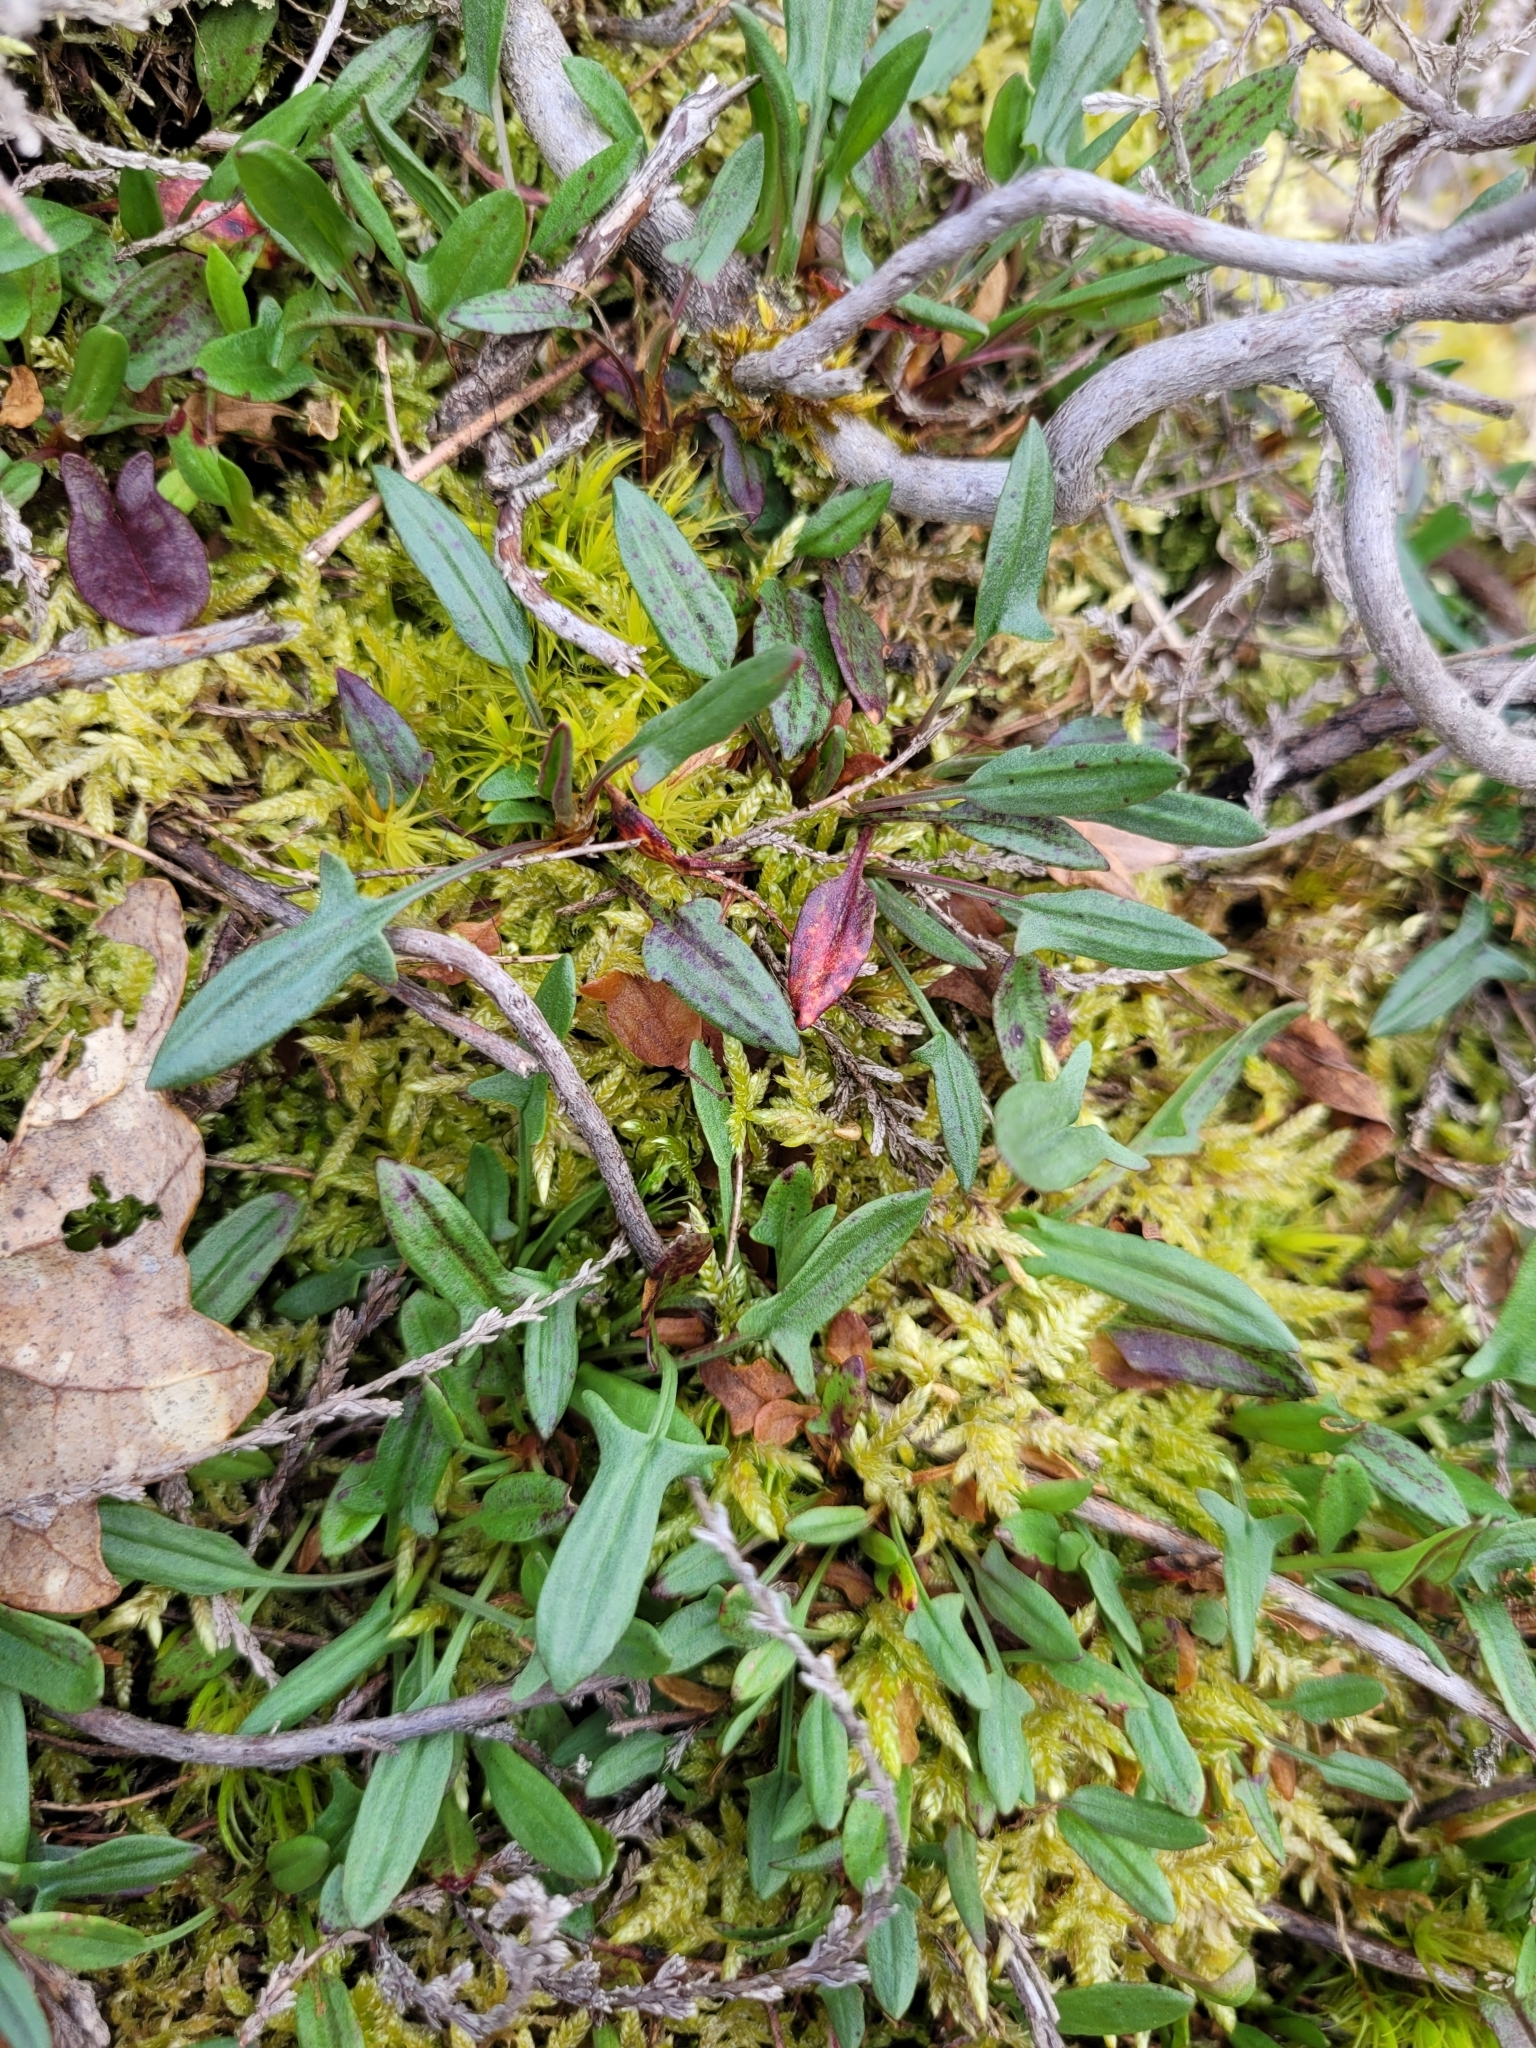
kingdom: Plantae
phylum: Tracheophyta
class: Magnoliopsida
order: Caryophyllales
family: Polygonaceae
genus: Rumex
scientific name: Rumex acetosella
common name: Common sheep sorrel
